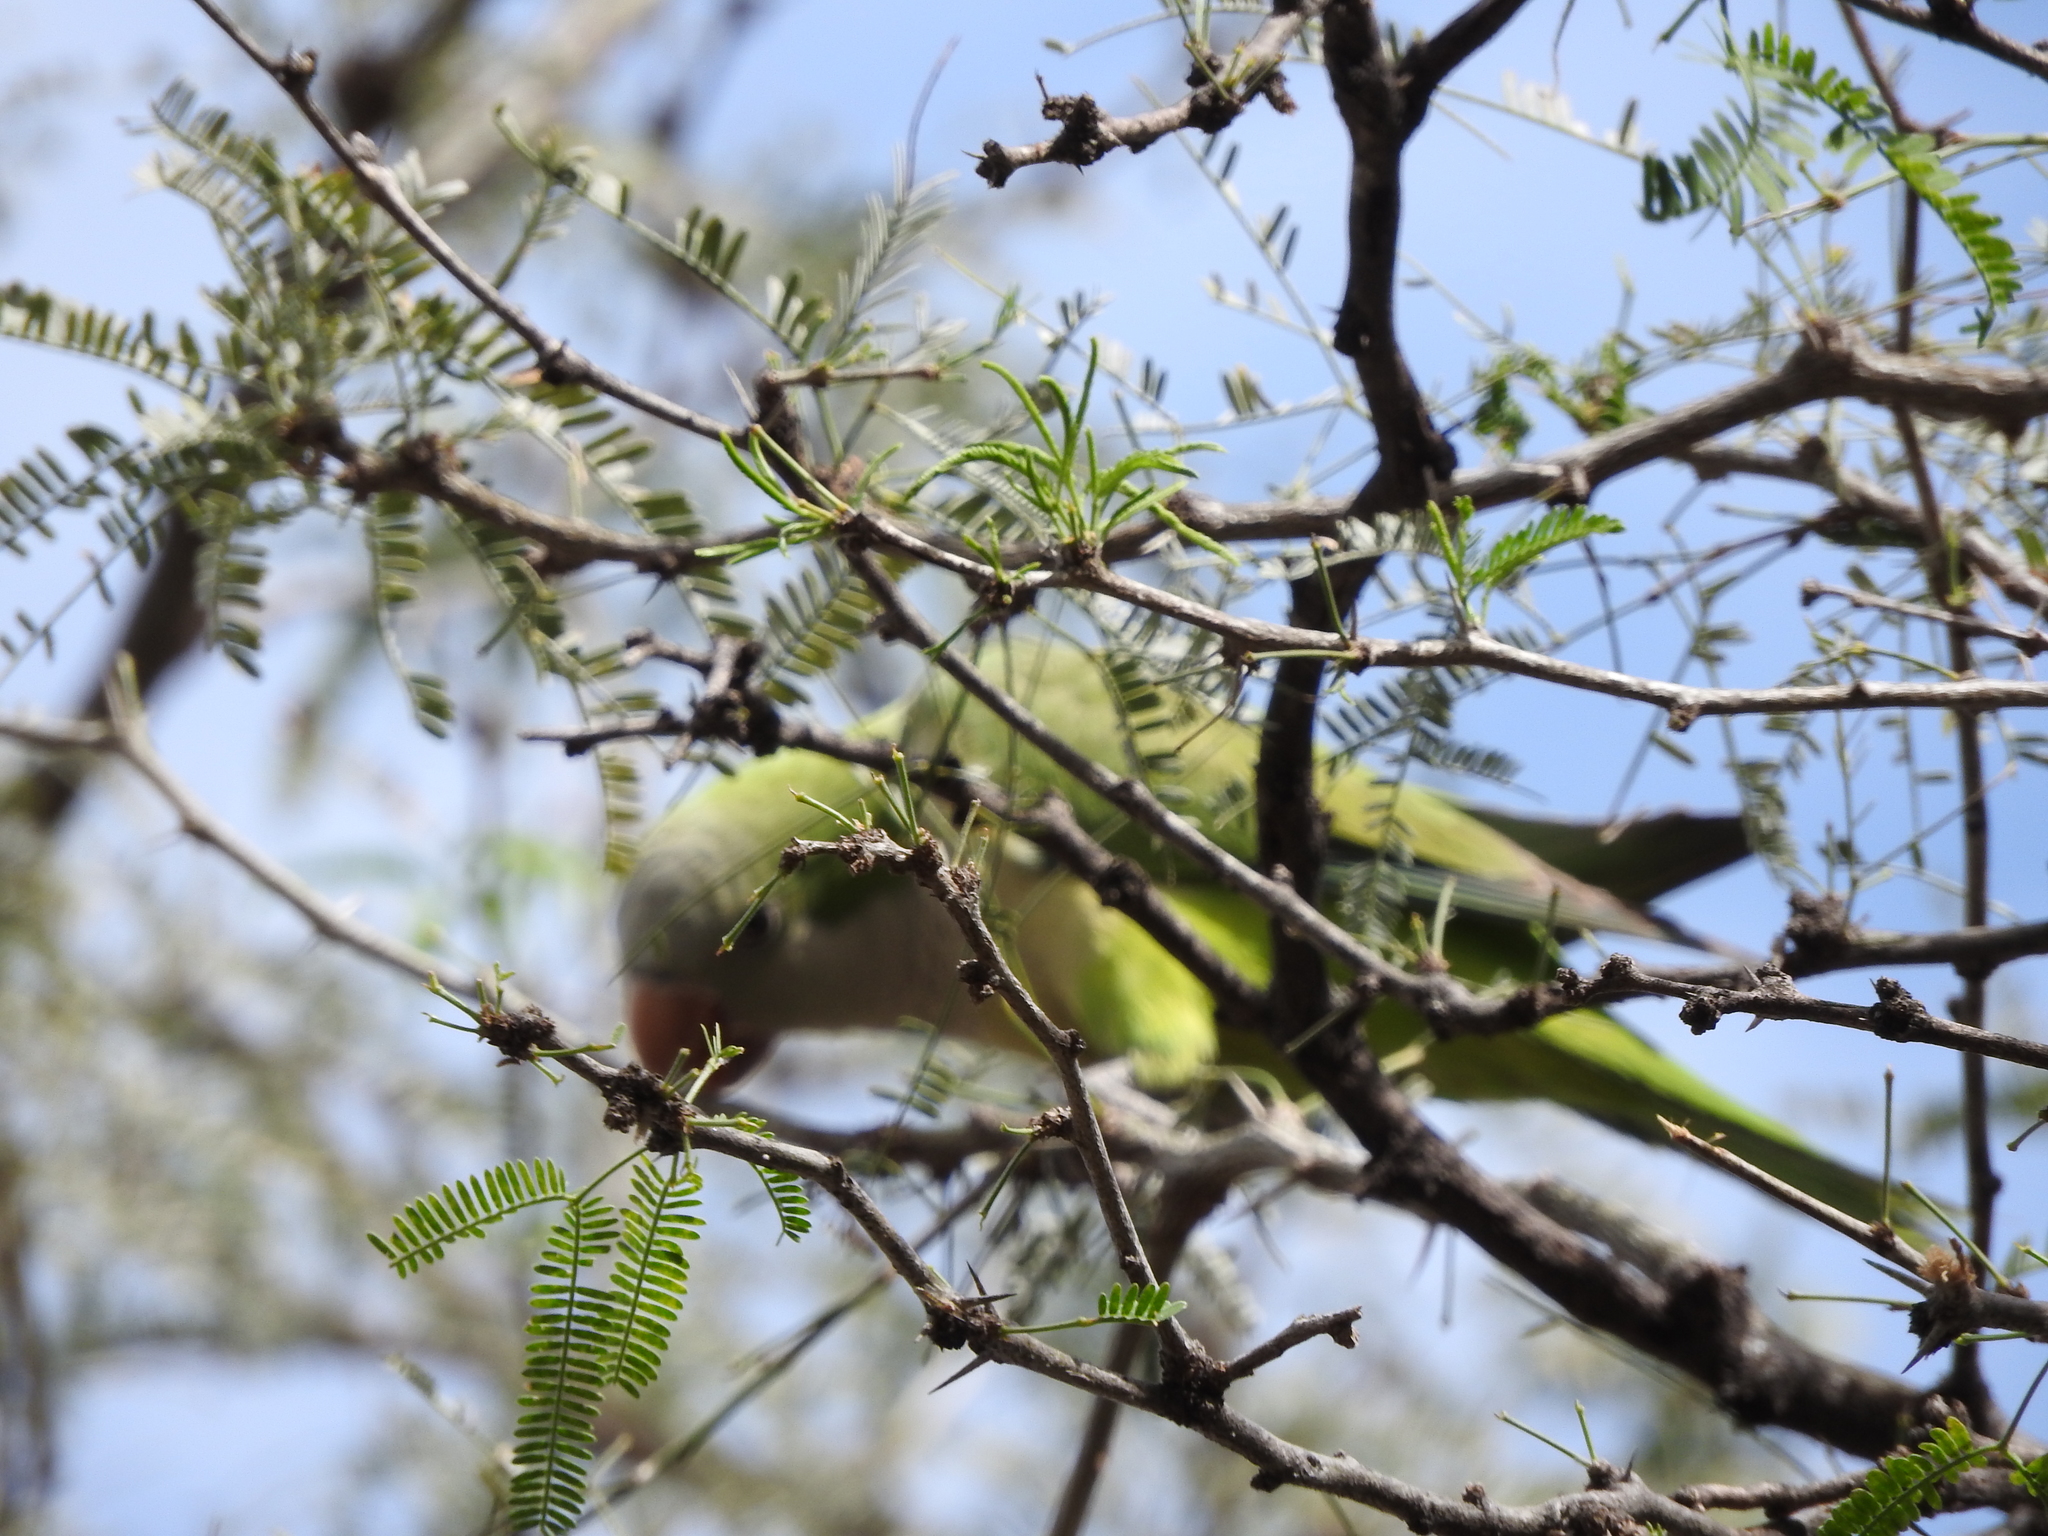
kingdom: Animalia
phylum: Chordata
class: Aves
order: Psittaciformes
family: Psittacidae
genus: Myiopsitta
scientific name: Myiopsitta monachus
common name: Monk parakeet
